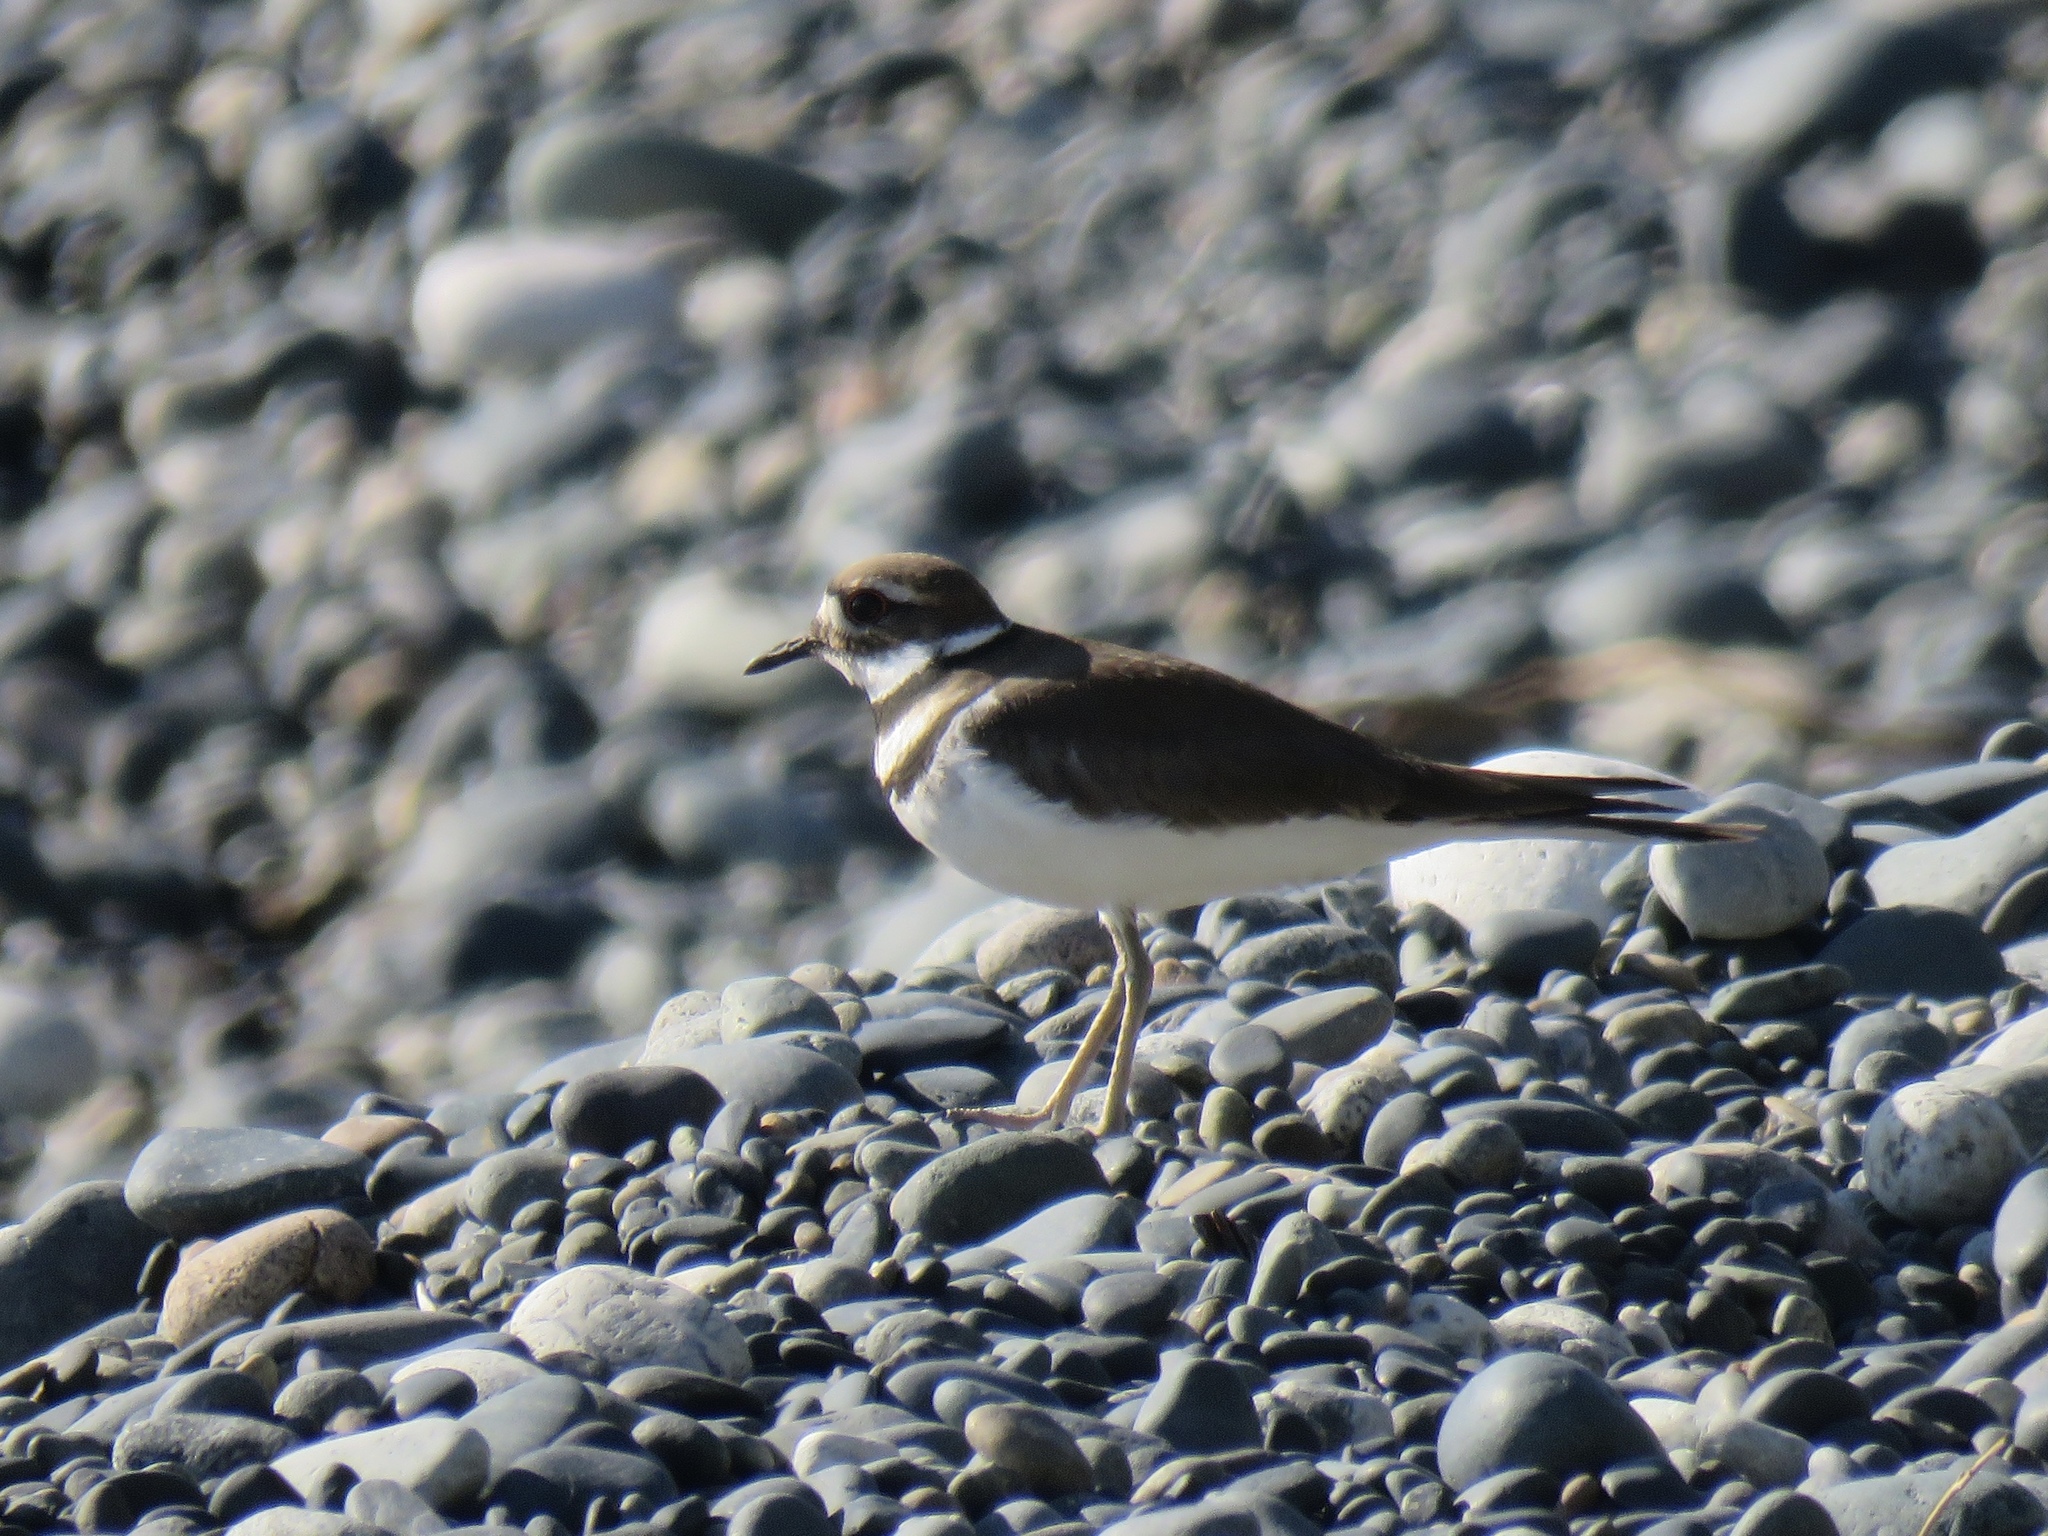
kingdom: Animalia
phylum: Chordata
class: Aves
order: Charadriiformes
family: Charadriidae
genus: Charadrius
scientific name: Charadrius vociferus
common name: Killdeer
